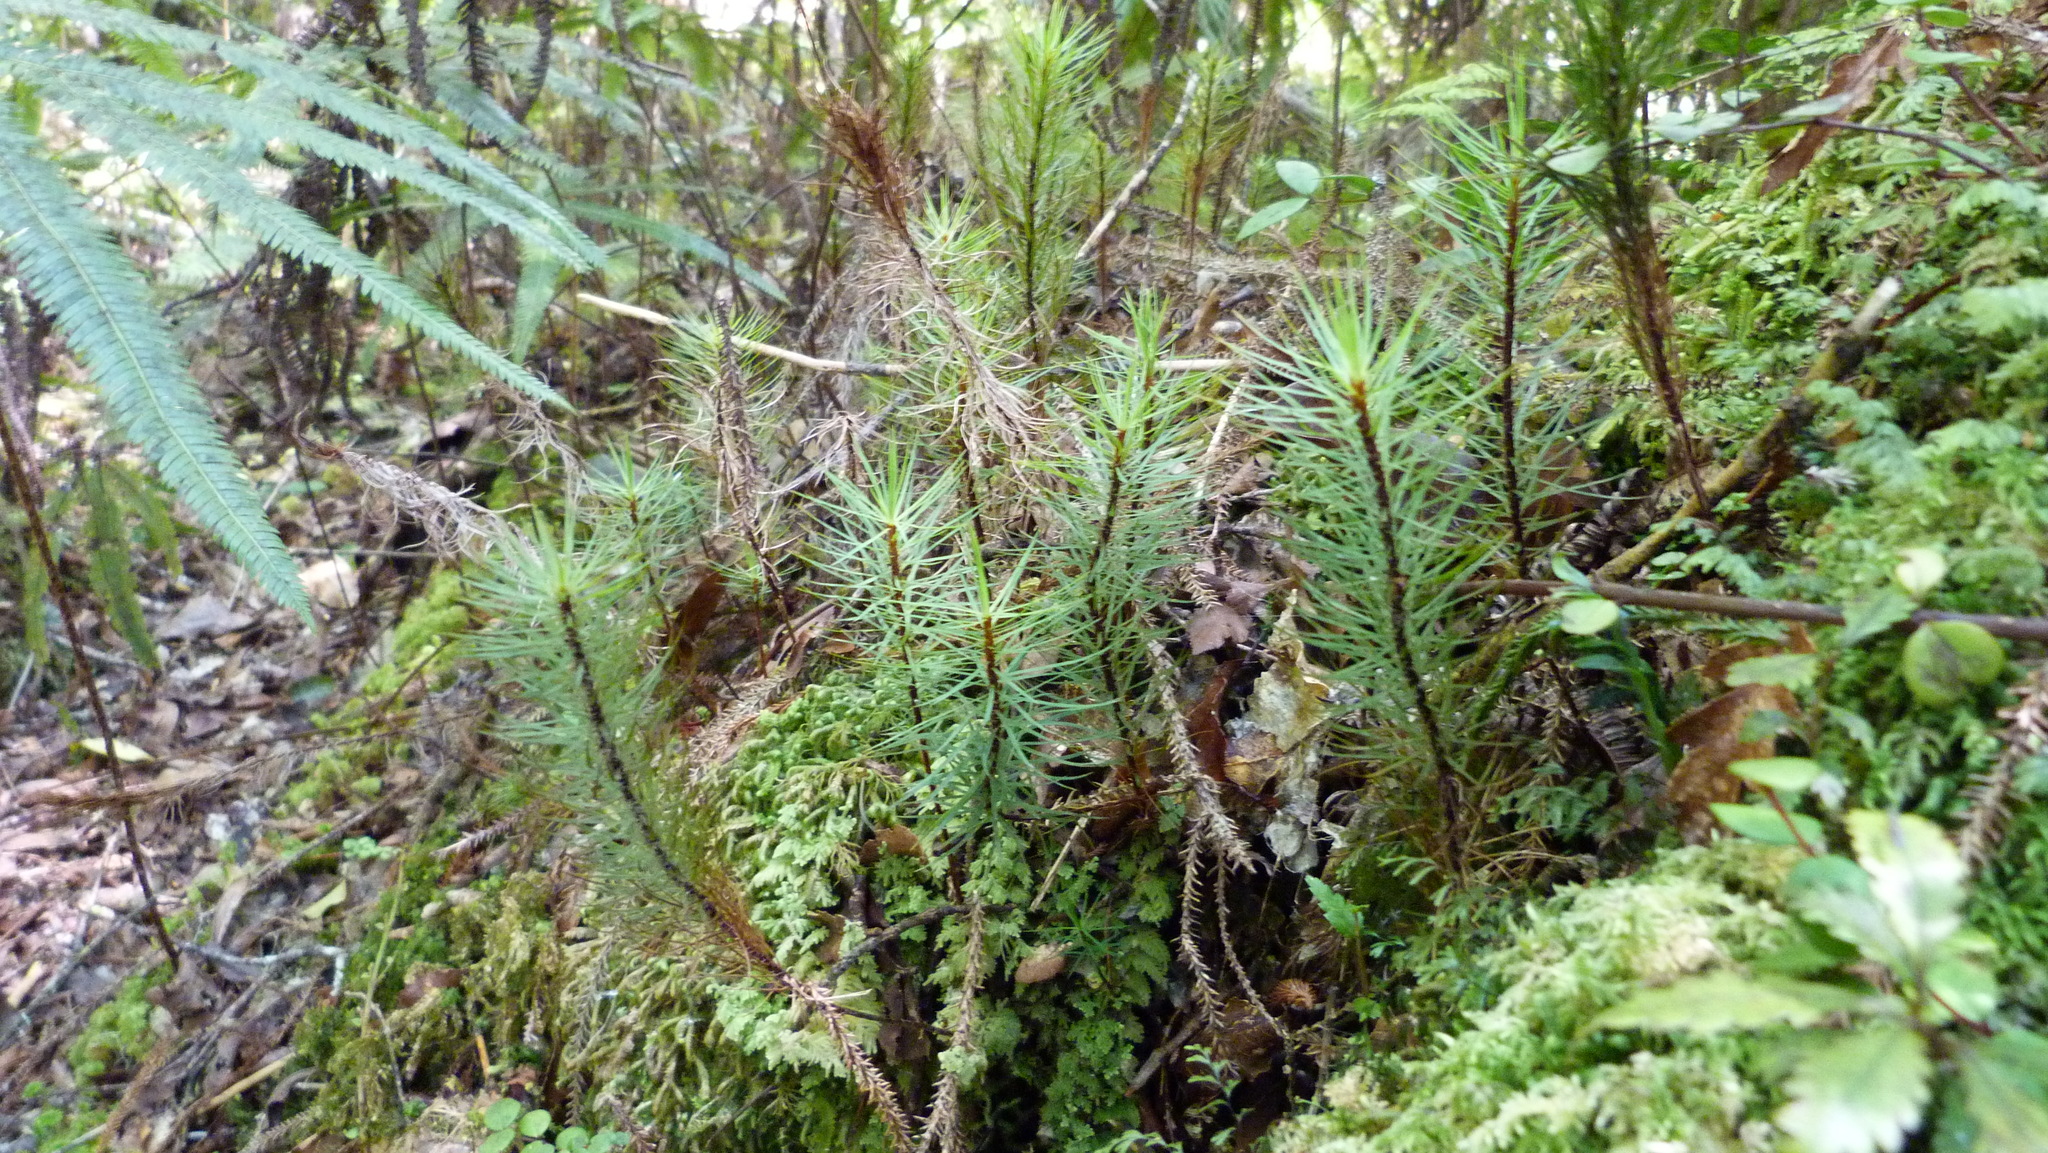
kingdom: Plantae
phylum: Bryophyta
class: Polytrichopsida
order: Polytrichales
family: Polytrichaceae
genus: Dawsonia
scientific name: Dawsonia superba
